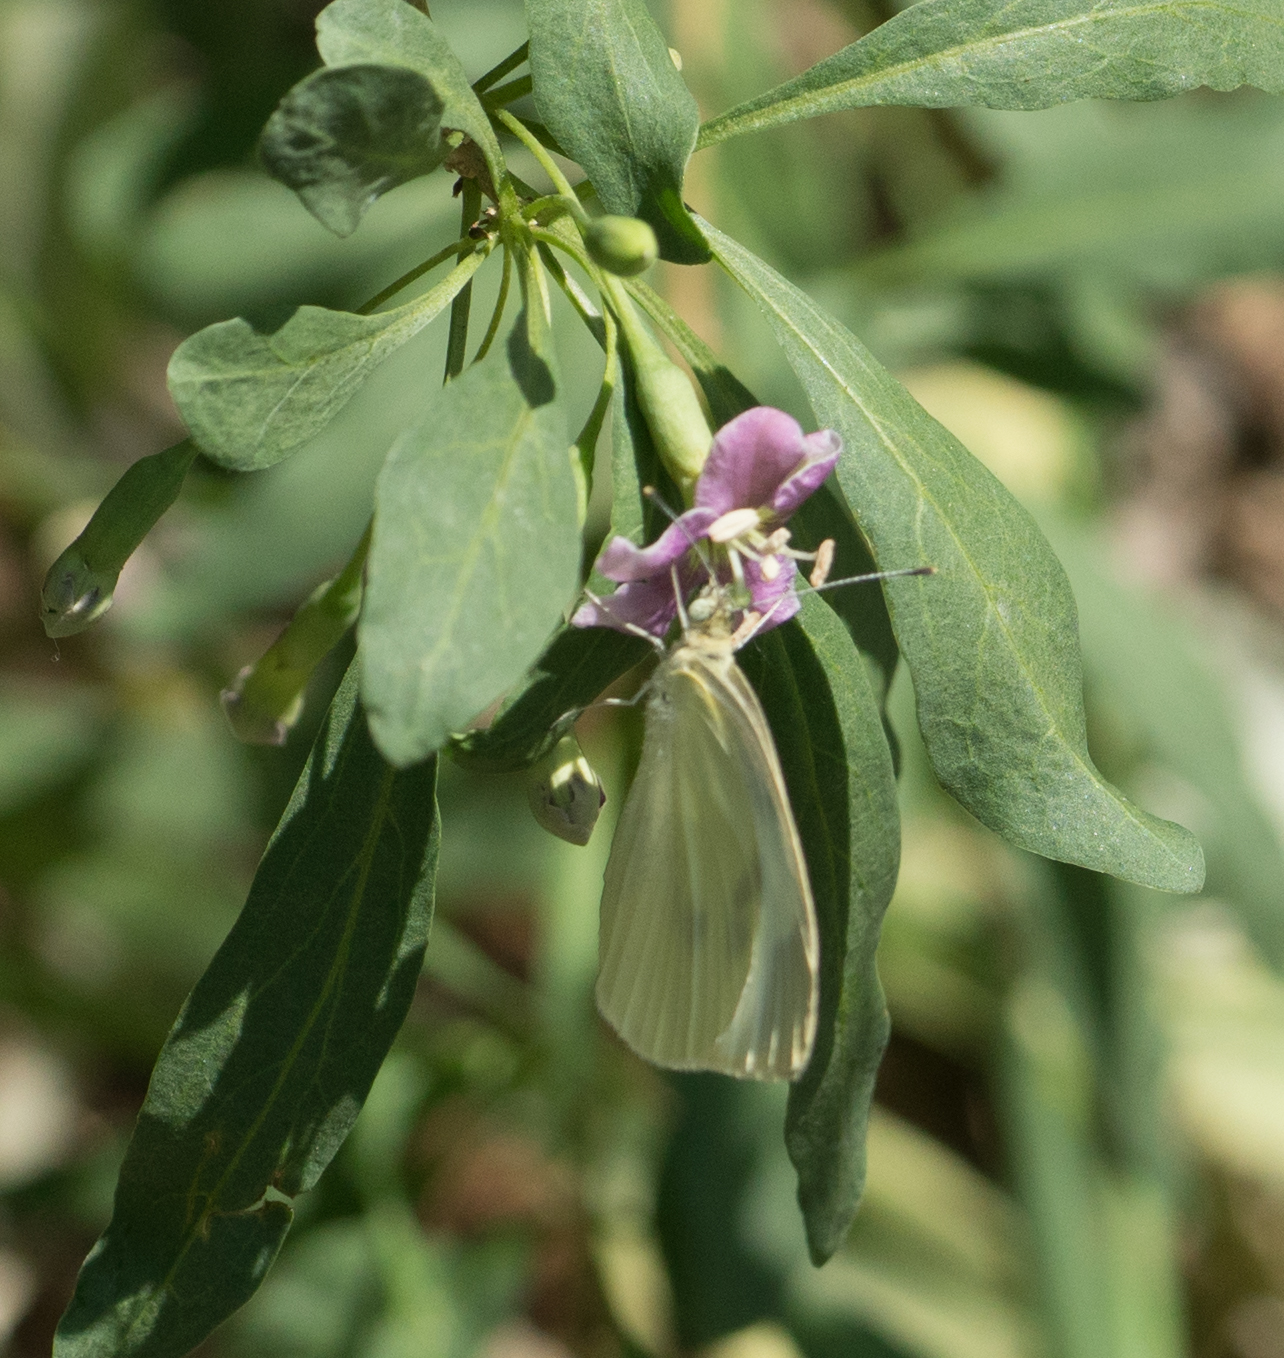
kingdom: Animalia
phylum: Arthropoda
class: Insecta
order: Lepidoptera
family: Pieridae
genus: Pieris
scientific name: Pieris rapae
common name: Small white
